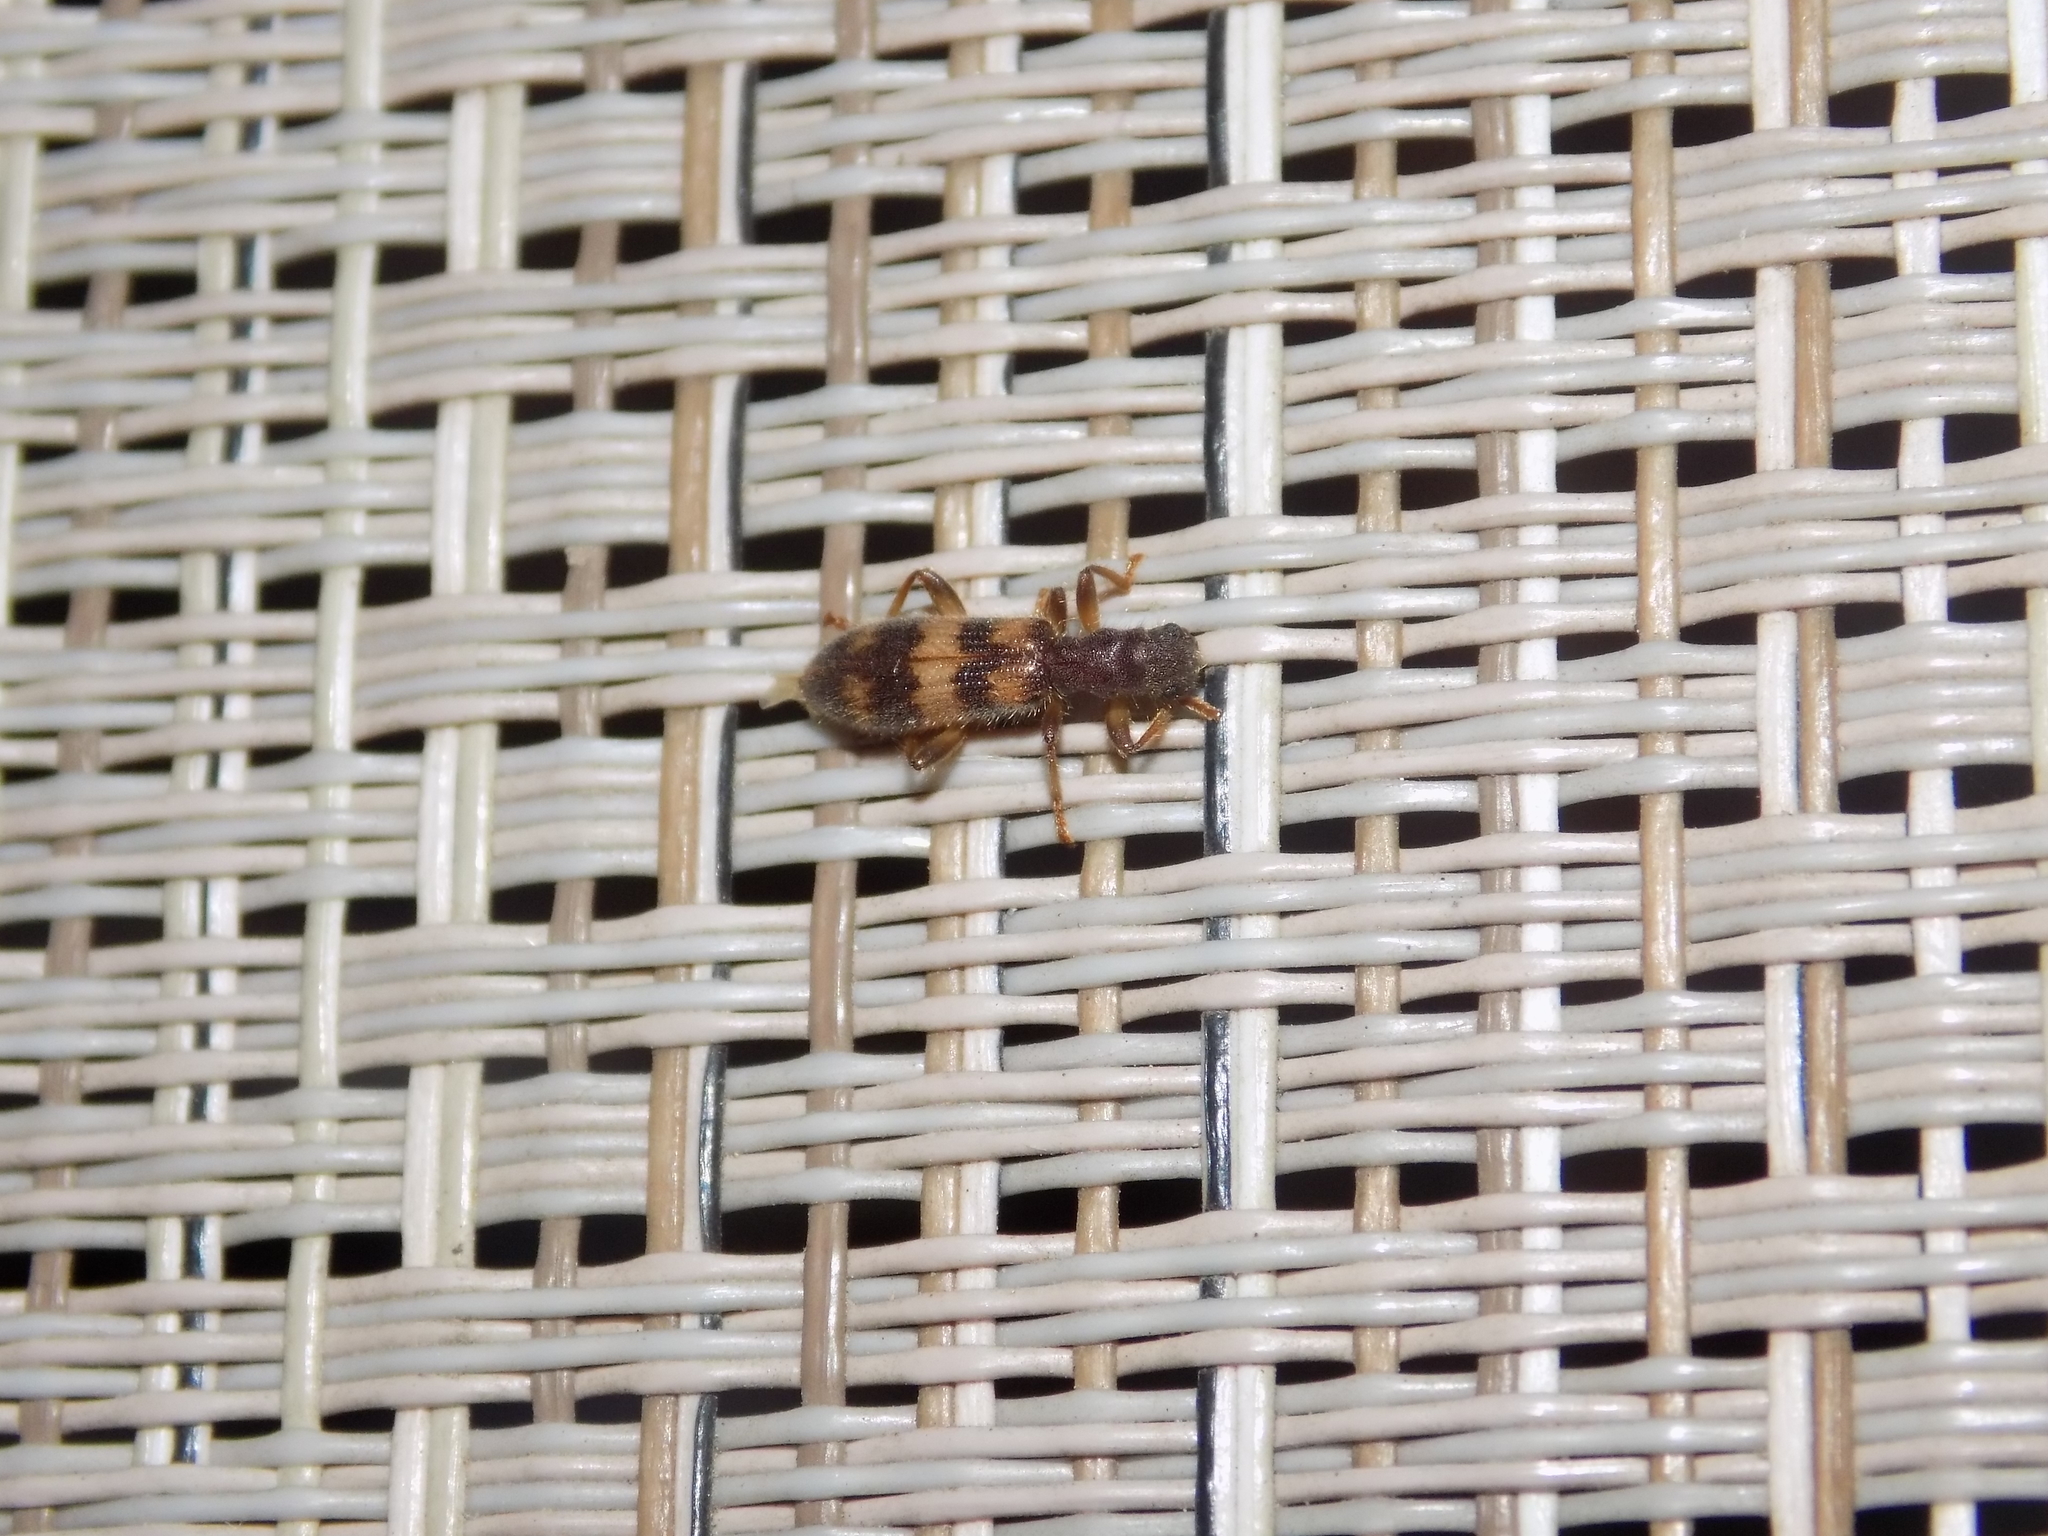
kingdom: Animalia
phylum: Arthropoda
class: Insecta
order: Coleoptera
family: Cleridae
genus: Cymatodera
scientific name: Cymatodera undulata
